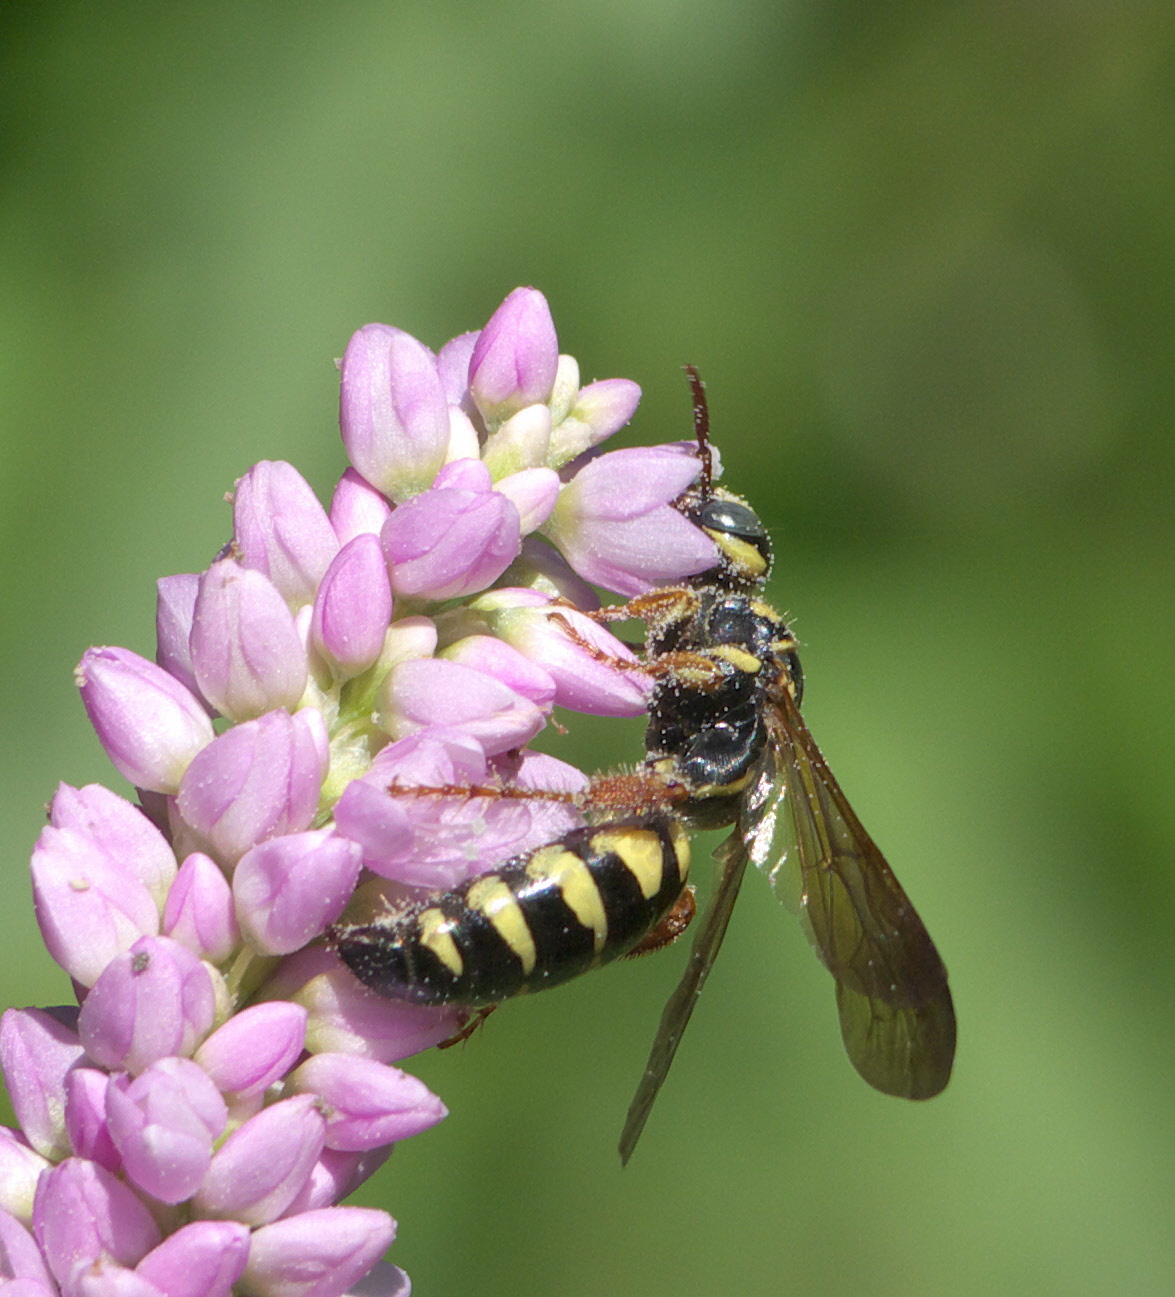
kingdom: Animalia
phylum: Arthropoda
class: Insecta
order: Hymenoptera
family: Tiphiidae
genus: Myzinum
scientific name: Myzinum
